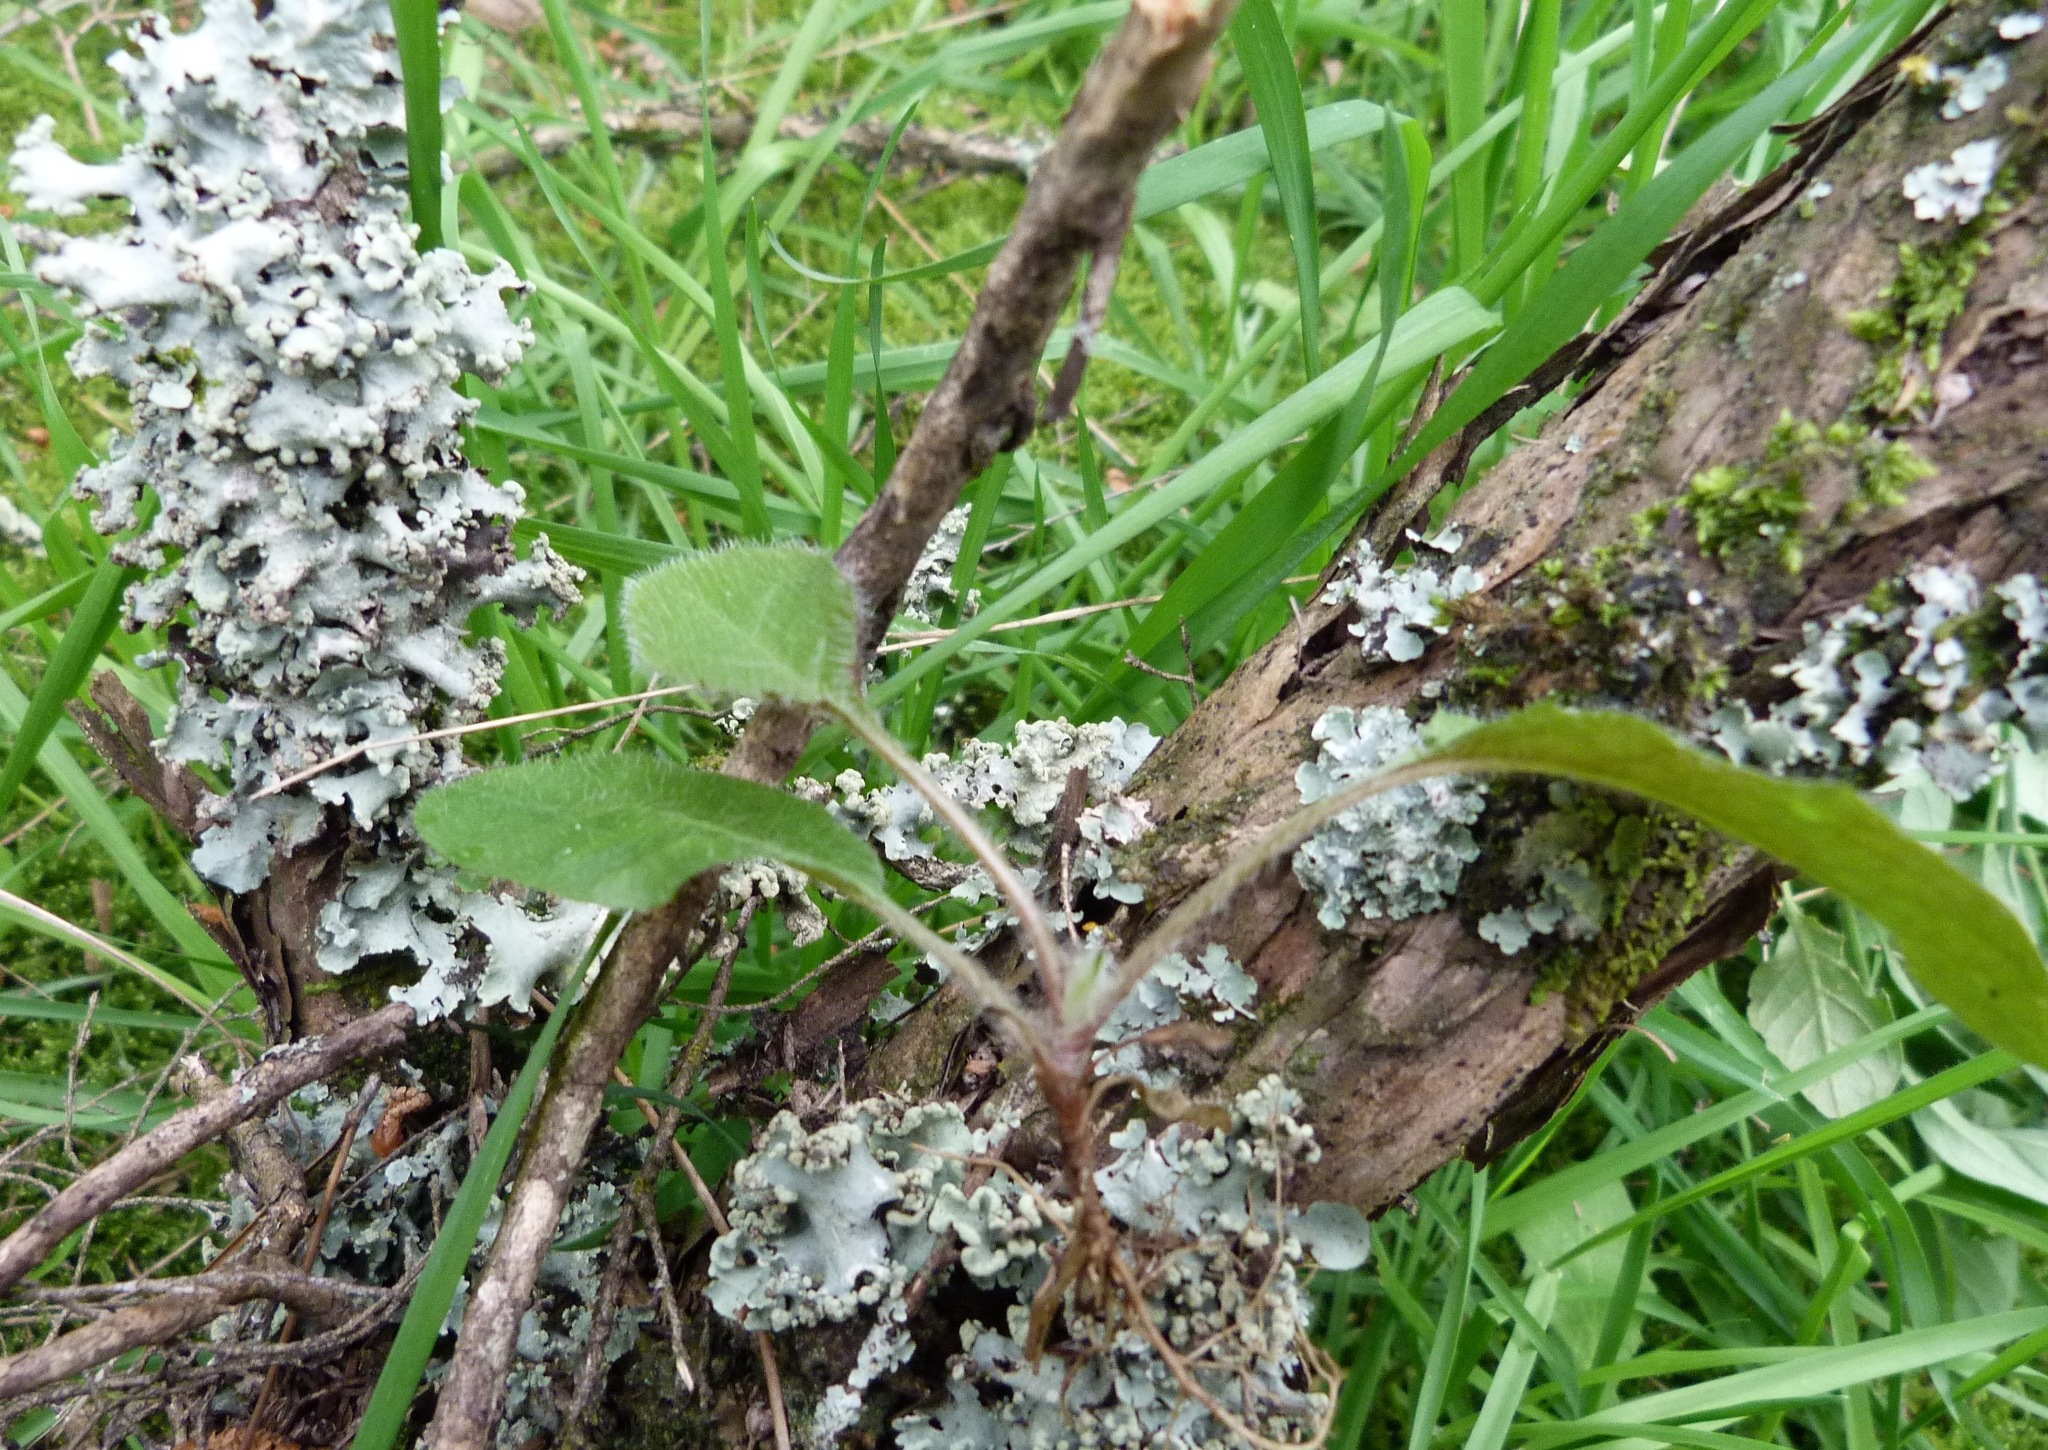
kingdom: Plantae
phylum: Tracheophyta
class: Magnoliopsida
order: Asterales
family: Asteraceae
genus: Hieracium
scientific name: Hieracium lepidulum
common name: Irregular-toothed hawkweed
